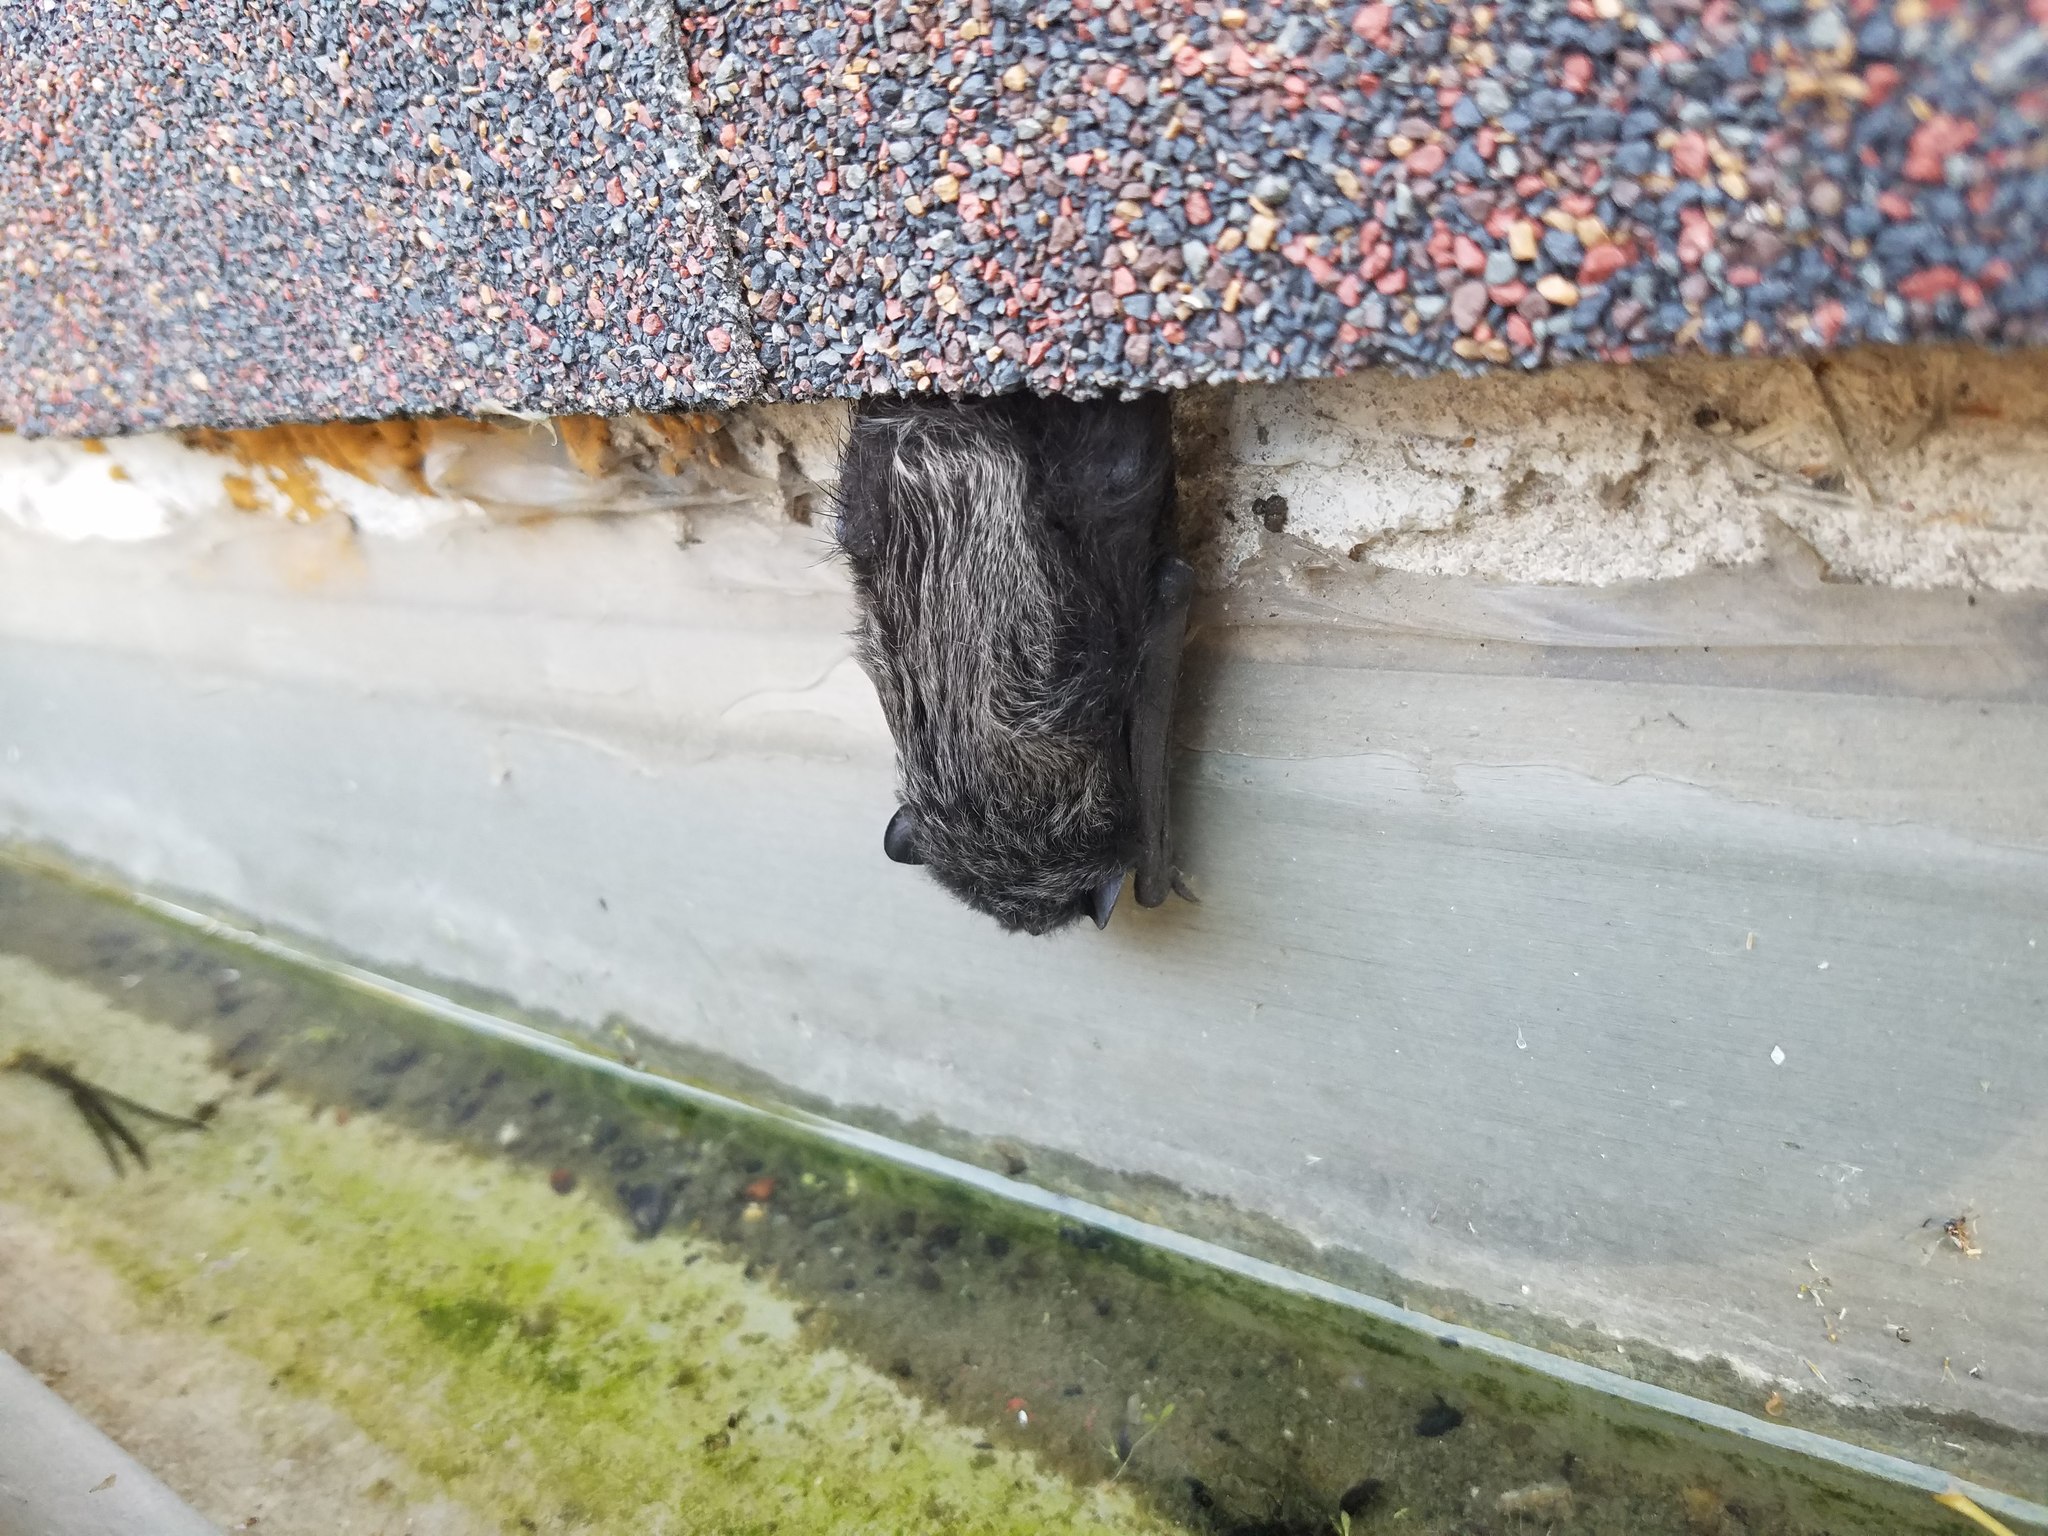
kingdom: Animalia
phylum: Chordata
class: Mammalia
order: Chiroptera
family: Vespertilionidae
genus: Lasionycteris
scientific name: Lasionycteris noctivagans
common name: Silver-haired bat
